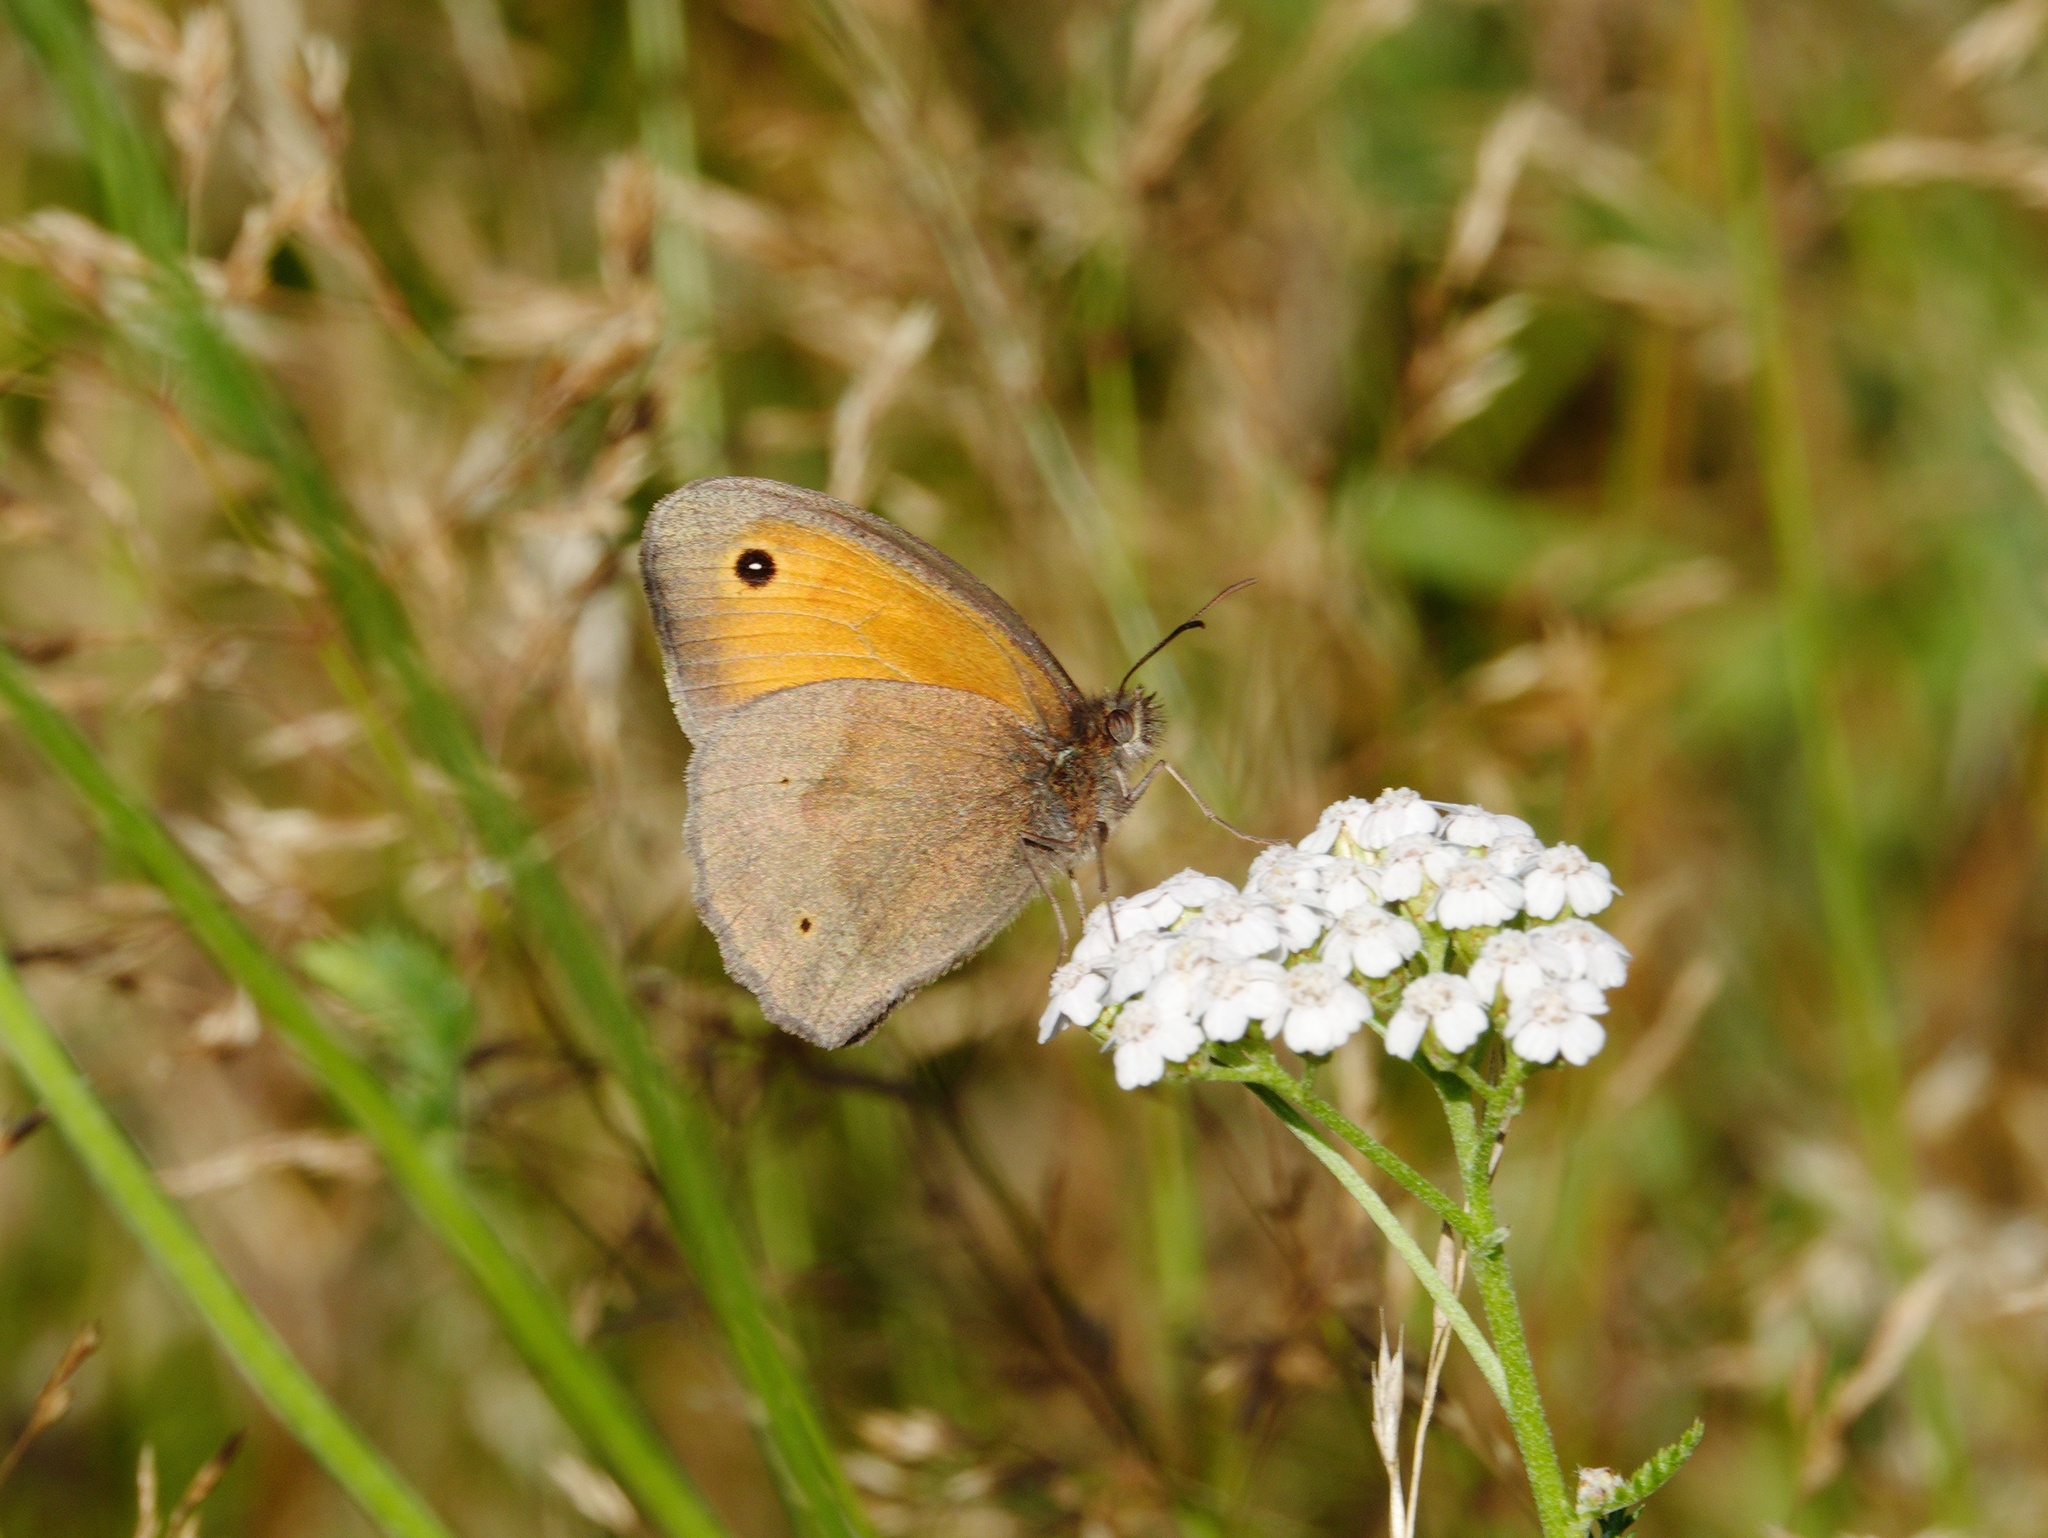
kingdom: Animalia
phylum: Arthropoda
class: Insecta
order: Lepidoptera
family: Nymphalidae
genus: Maniola
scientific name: Maniola jurtina
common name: Meadow brown
